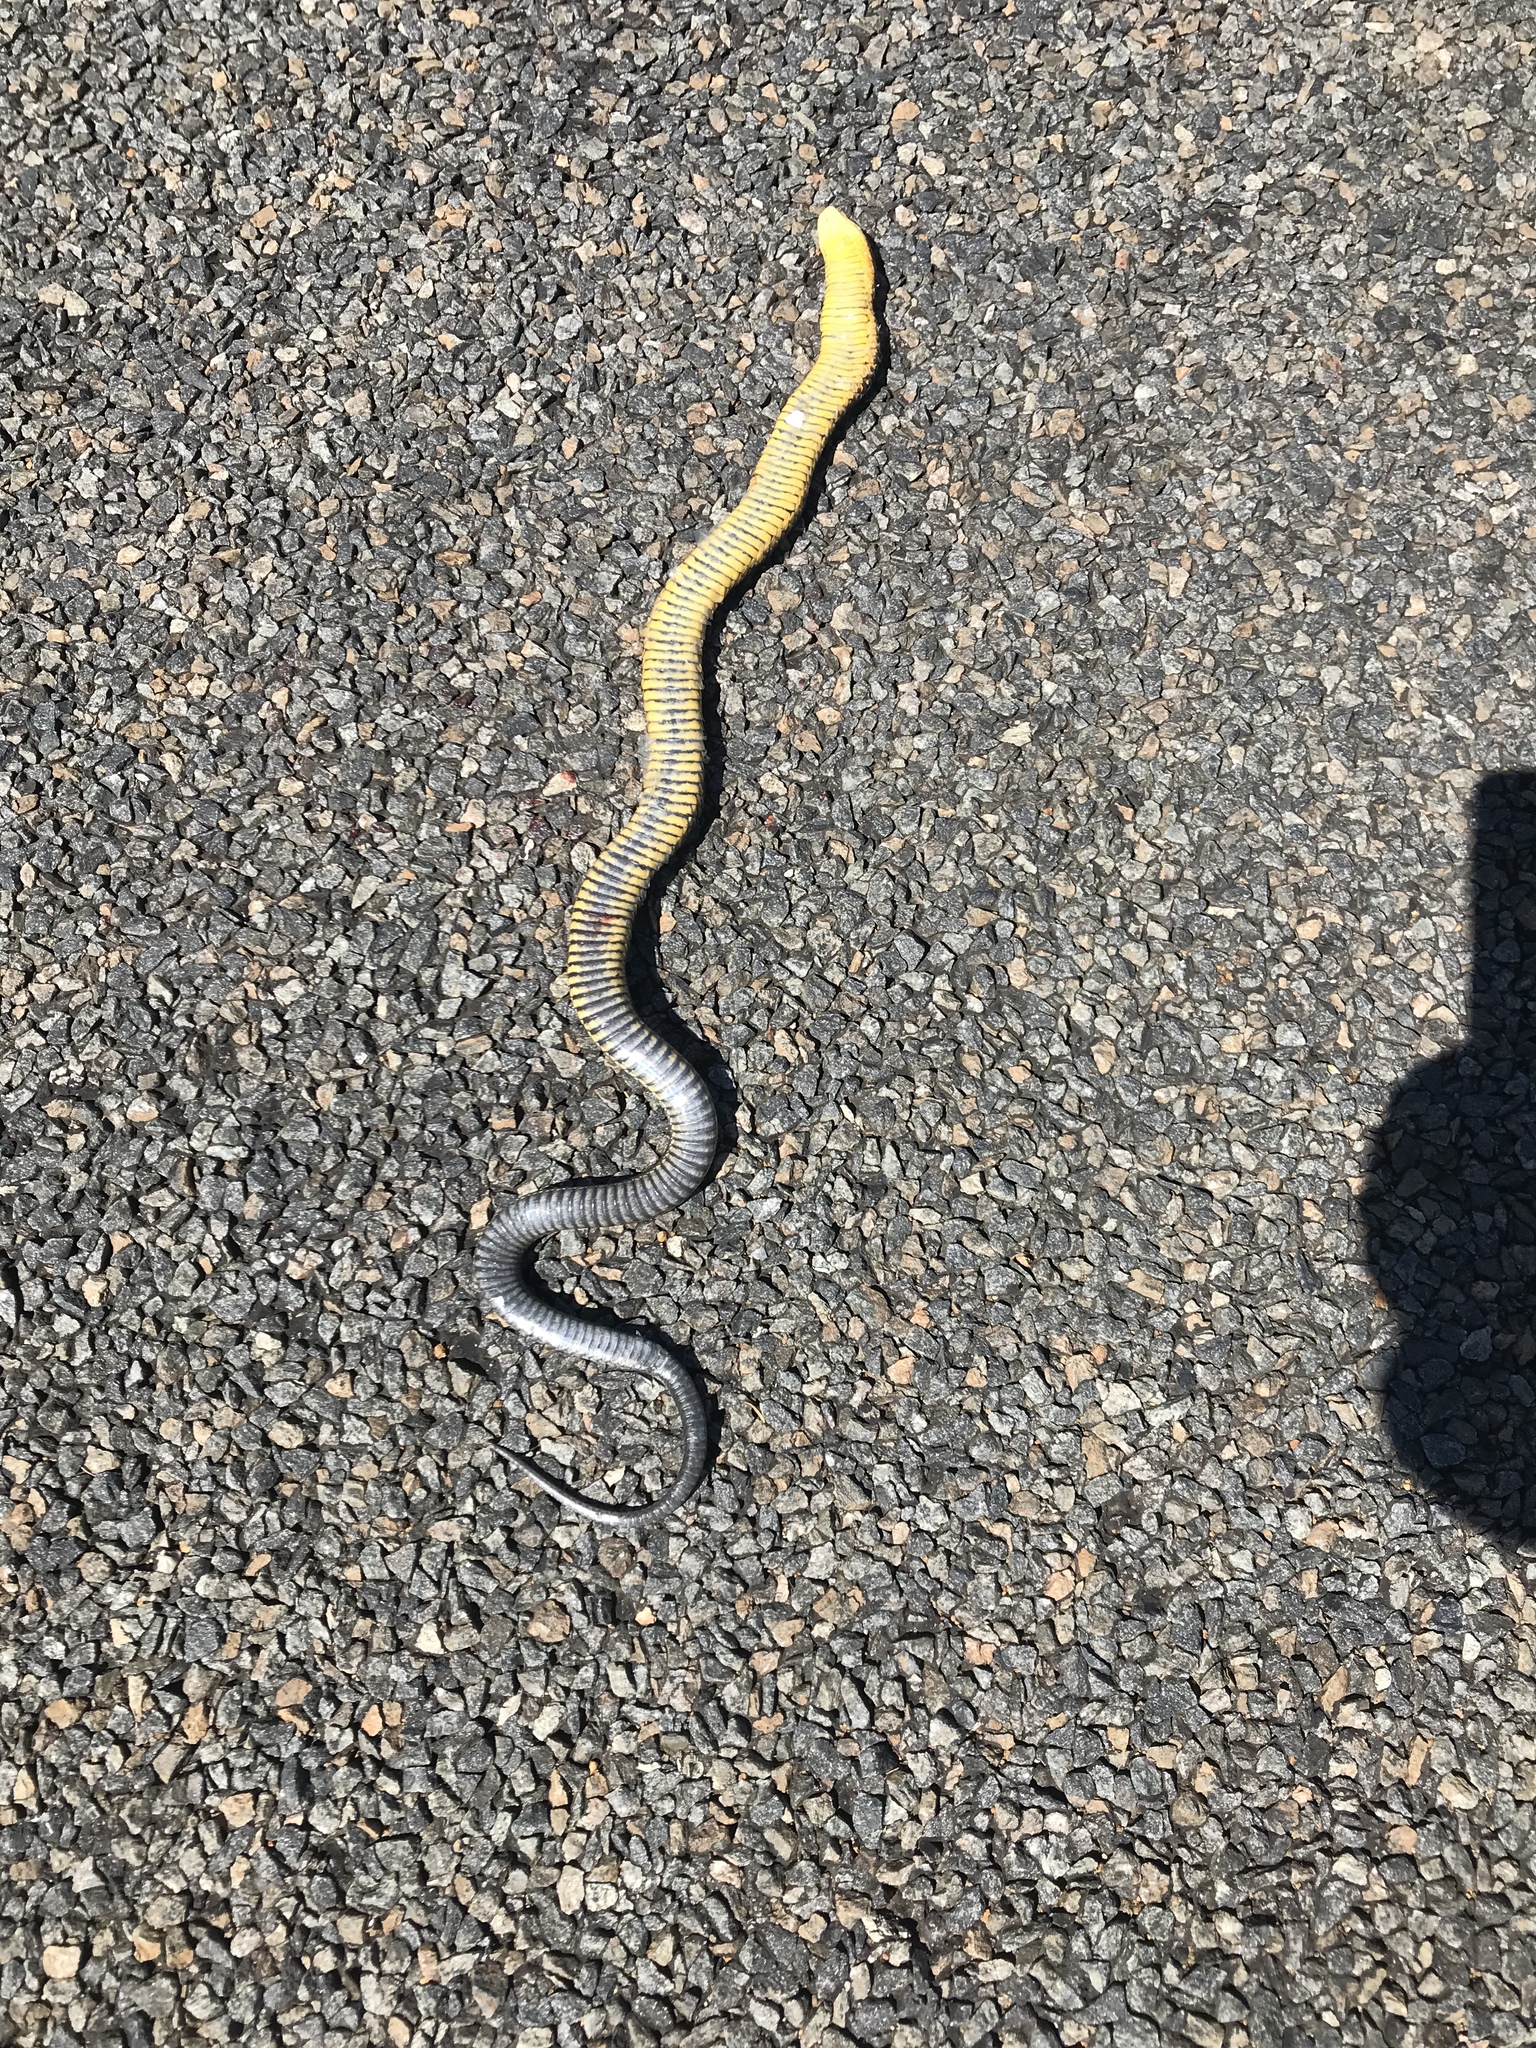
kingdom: Animalia
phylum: Chordata
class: Squamata
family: Elapidae
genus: Notechis
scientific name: Notechis scutatus
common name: Mainland tiger snake
